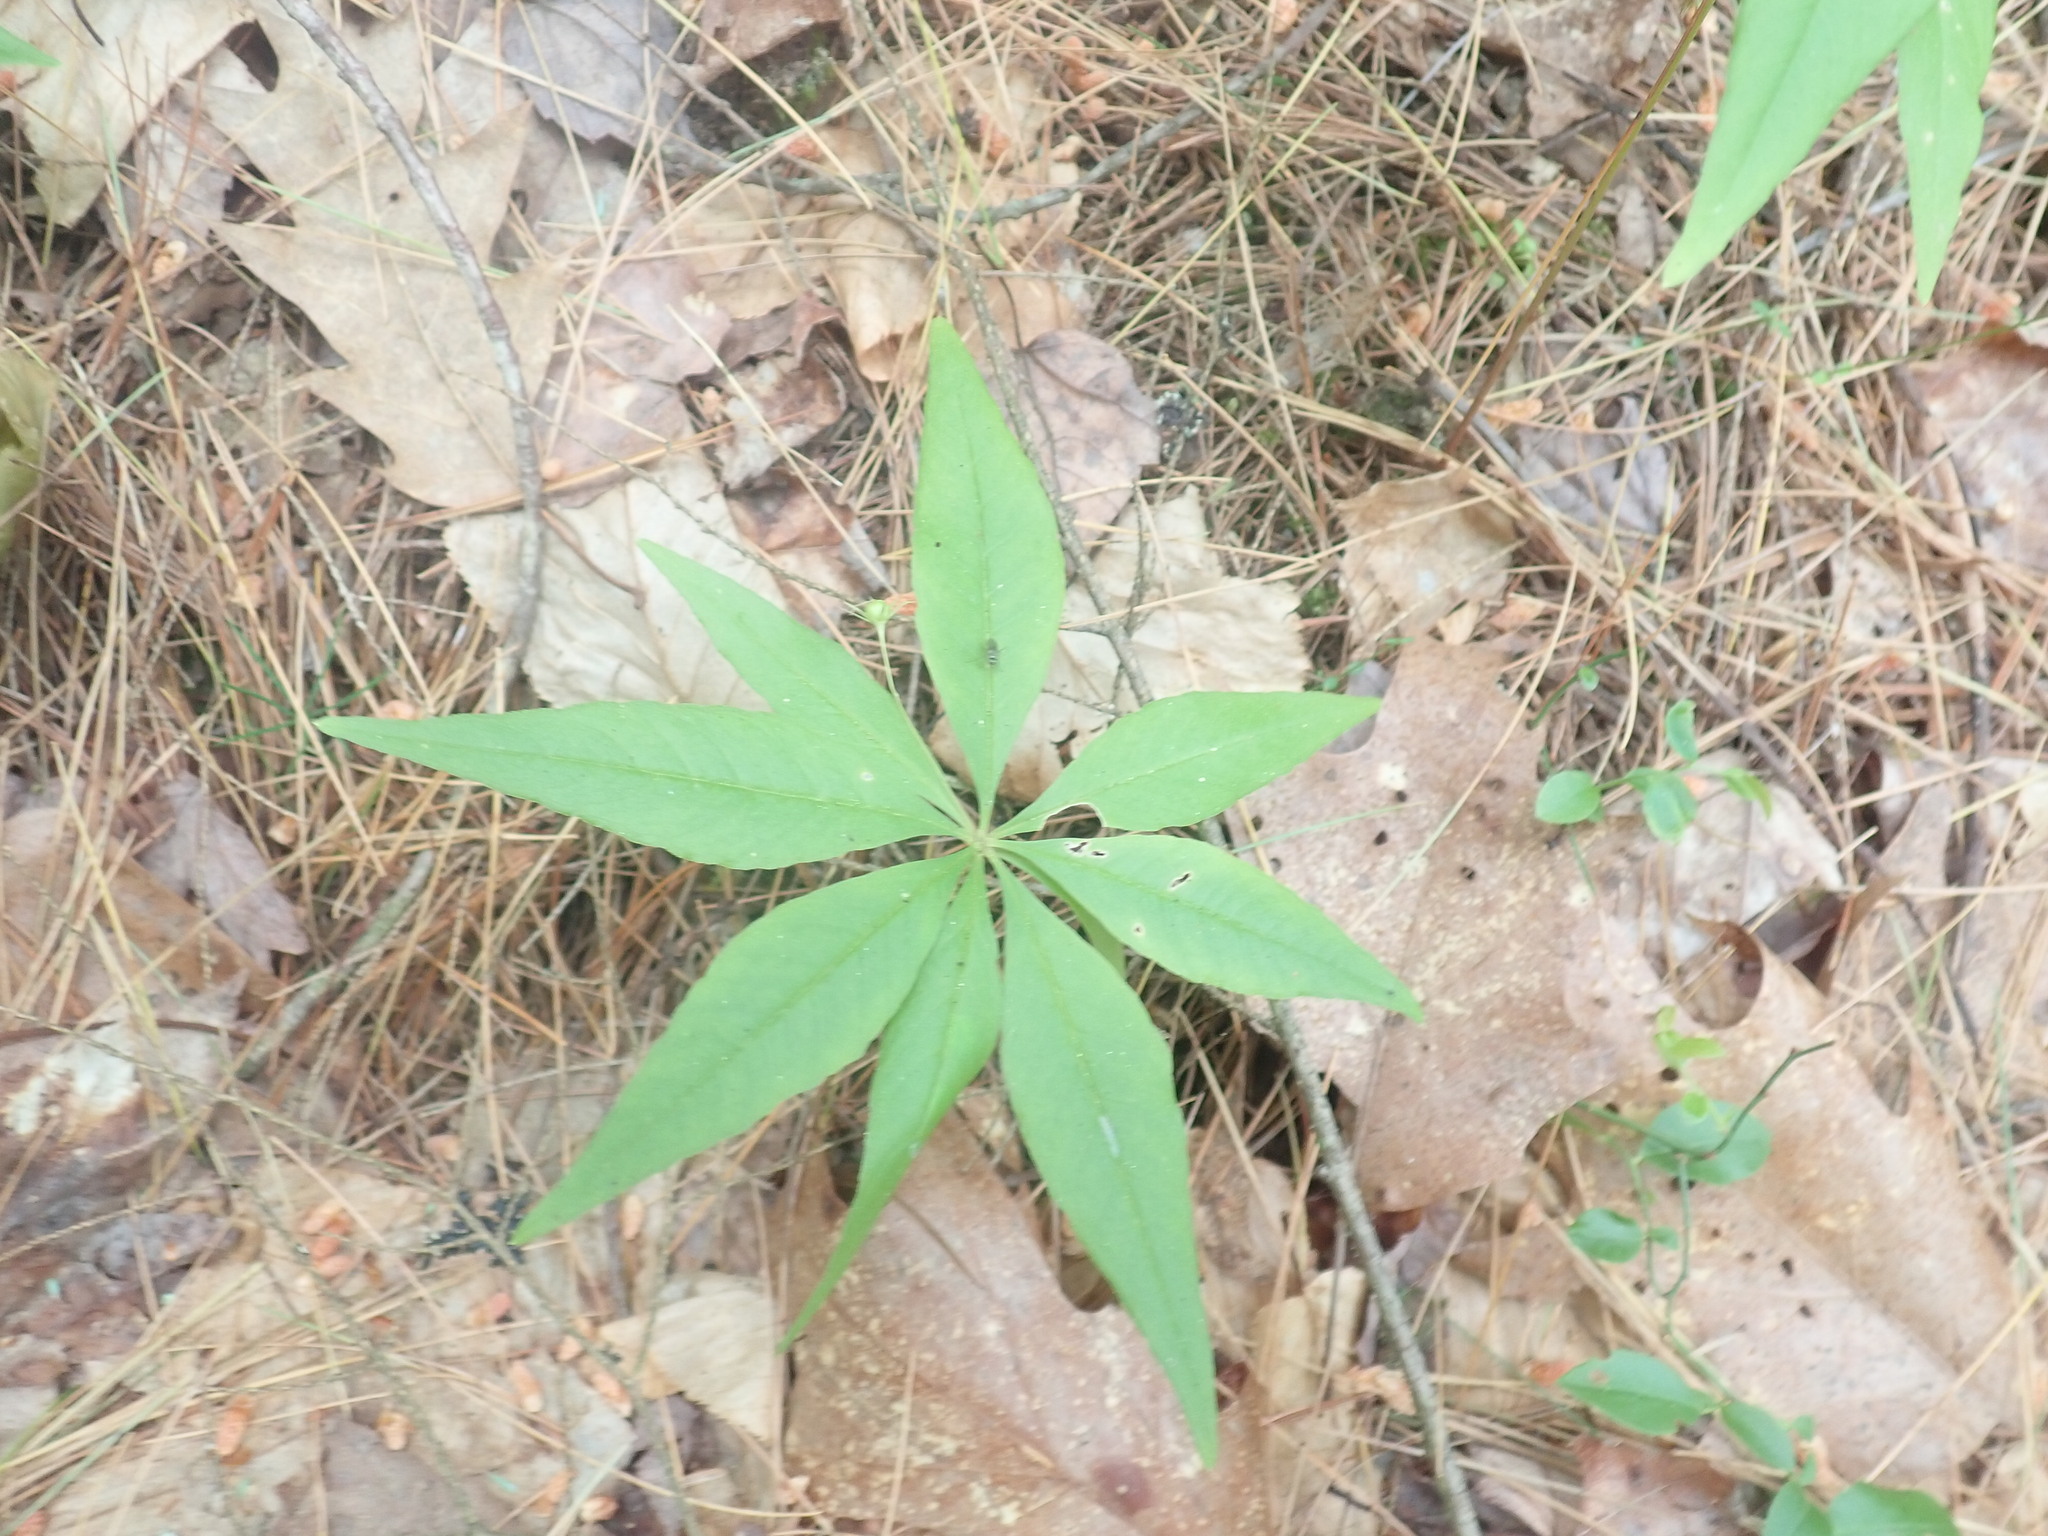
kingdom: Plantae
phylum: Tracheophyta
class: Magnoliopsida
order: Ericales
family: Primulaceae
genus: Lysimachia
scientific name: Lysimachia borealis
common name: American starflower
